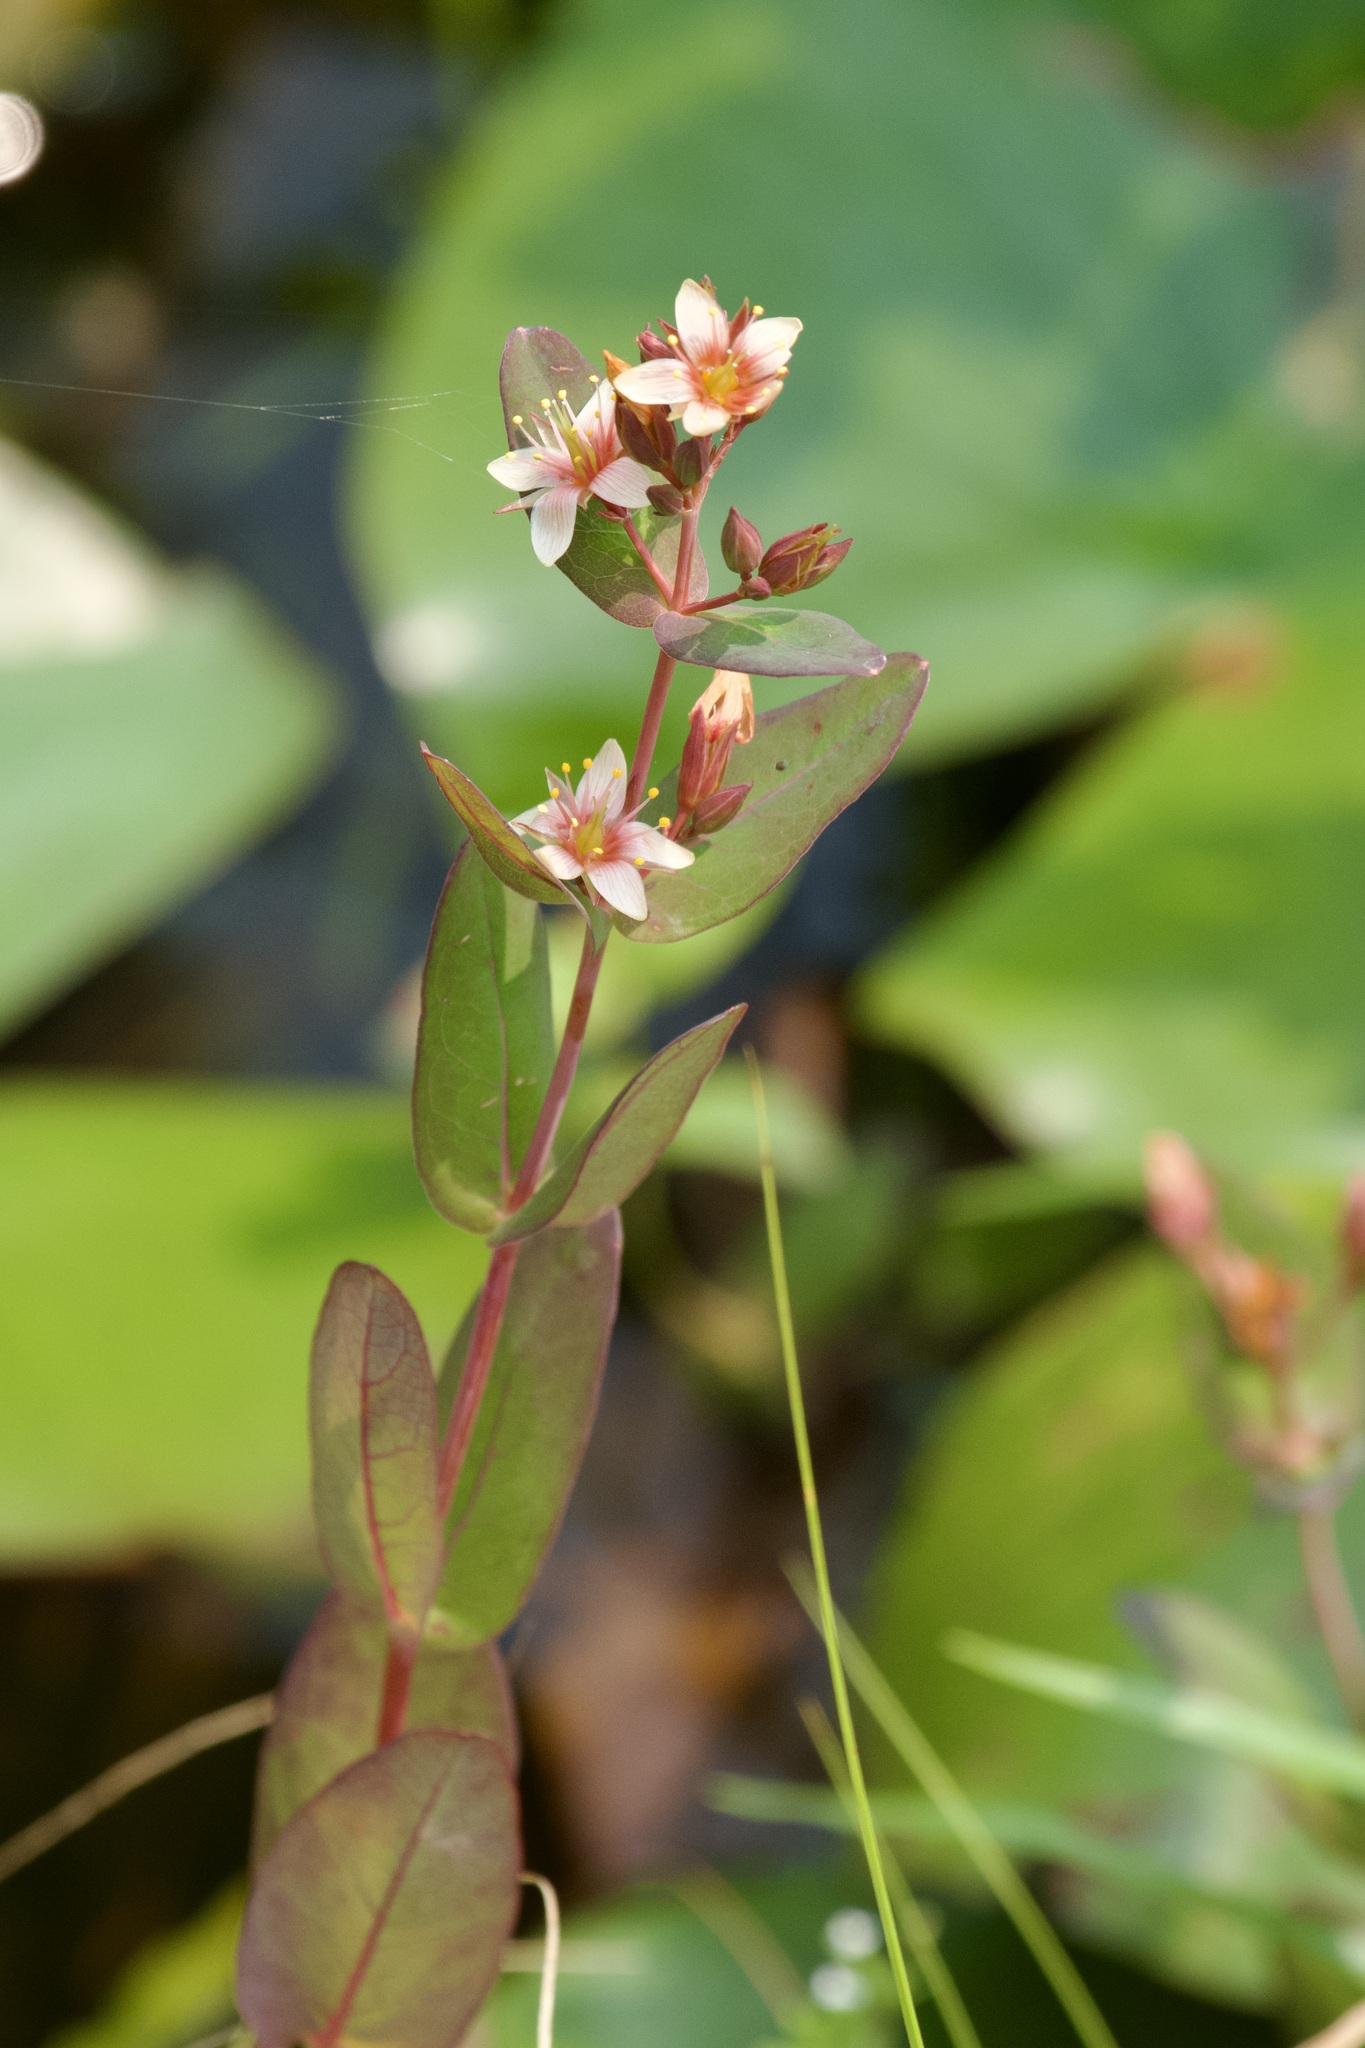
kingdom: Plantae
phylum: Tracheophyta
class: Magnoliopsida
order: Malpighiales
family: Hypericaceae
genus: Triadenum
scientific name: Triadenum virginicum
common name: Marsh st. john's-wort
